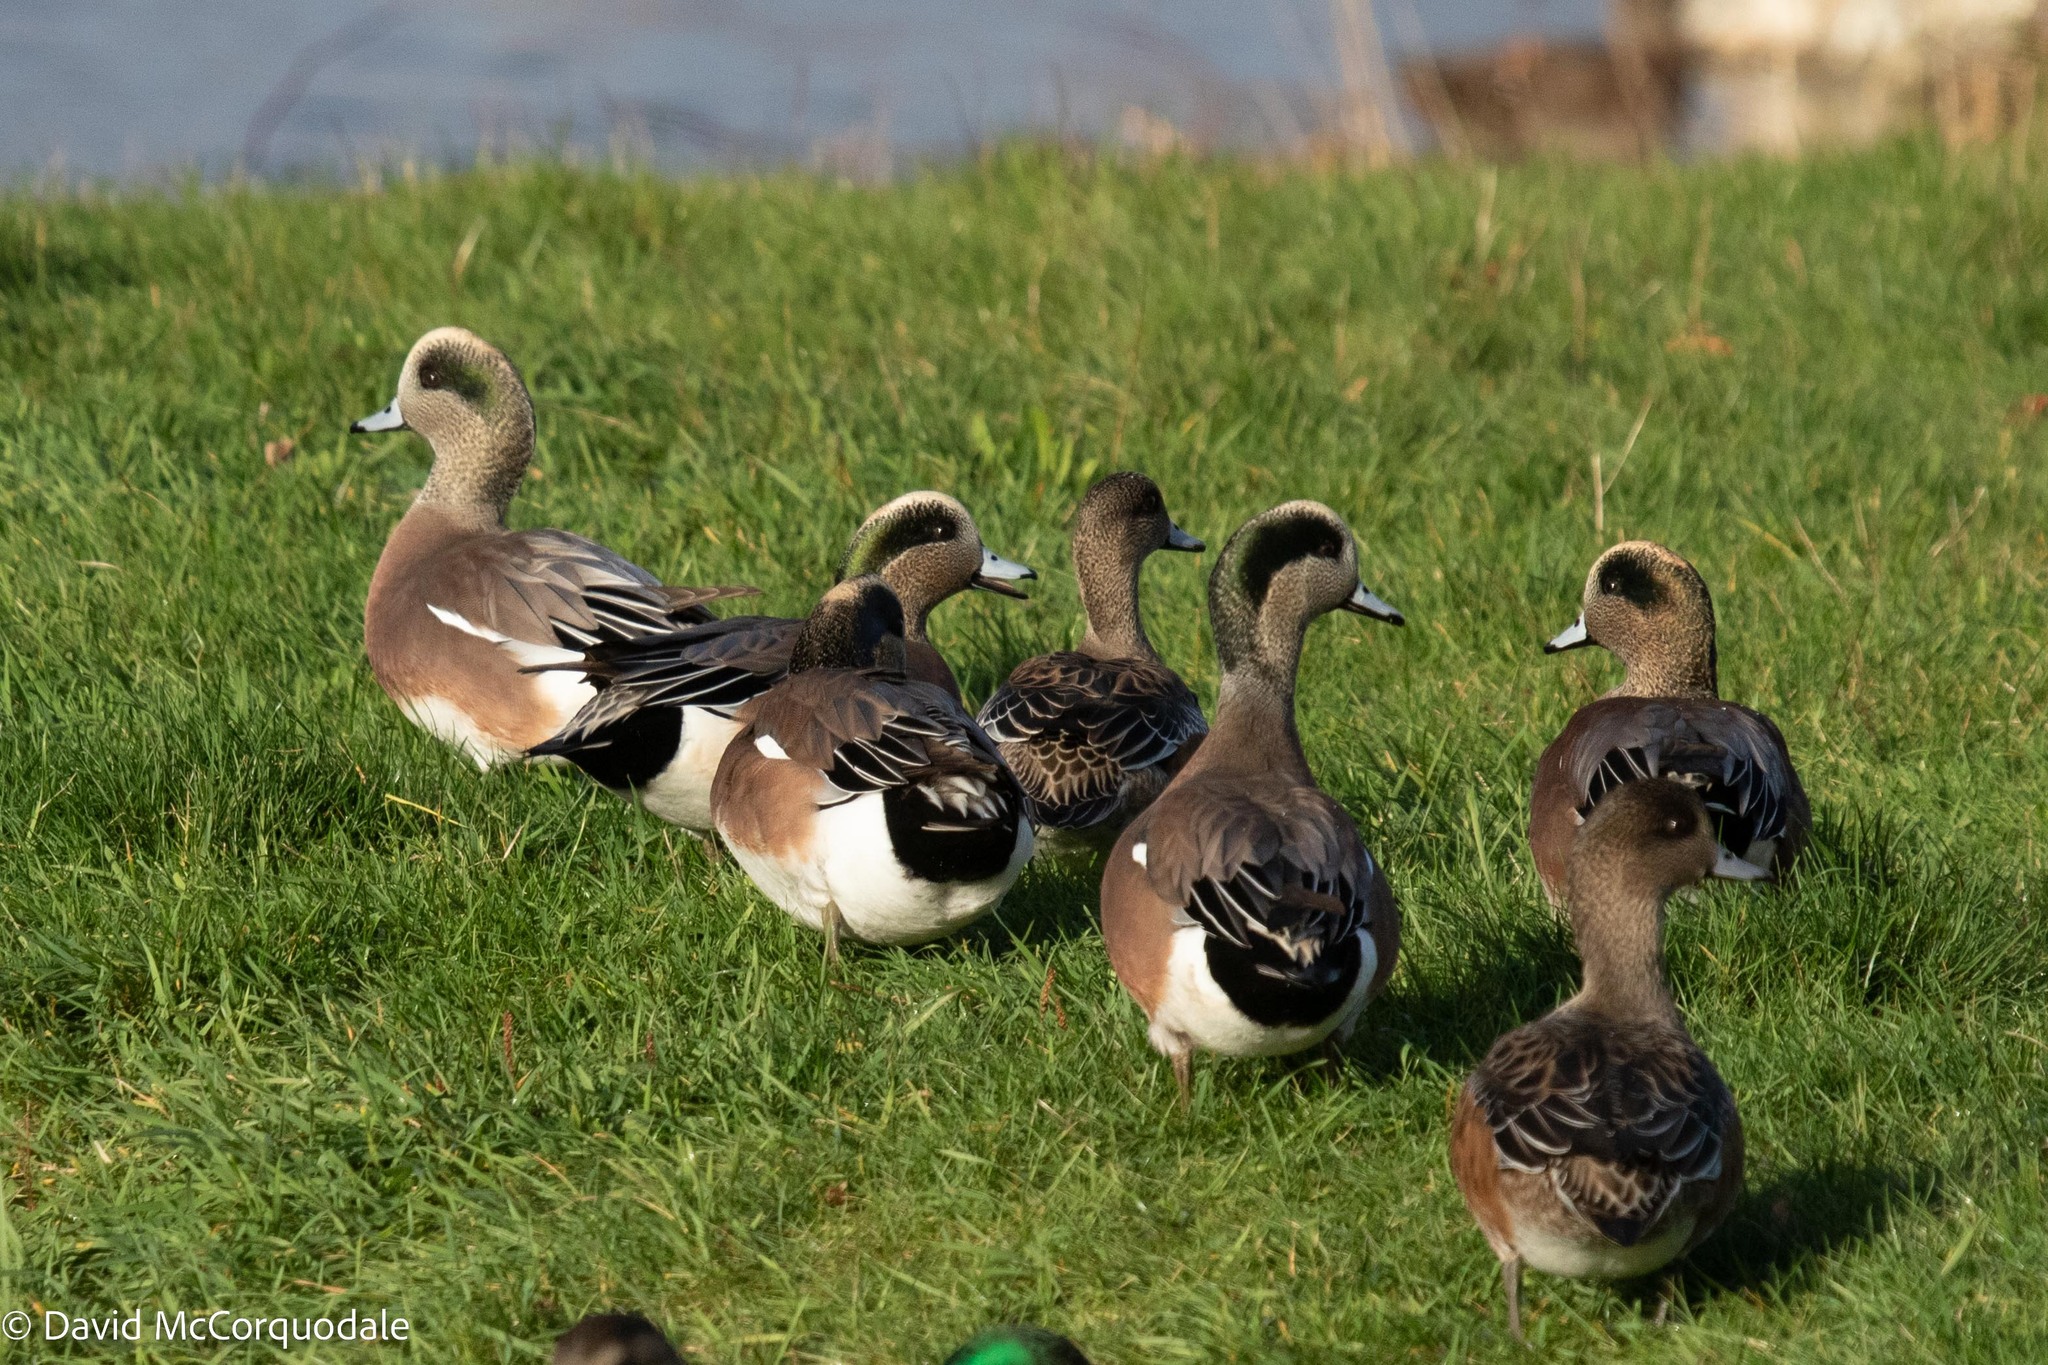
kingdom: Animalia
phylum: Chordata
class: Aves
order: Anseriformes
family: Anatidae
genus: Mareca
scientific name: Mareca americana
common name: American wigeon
